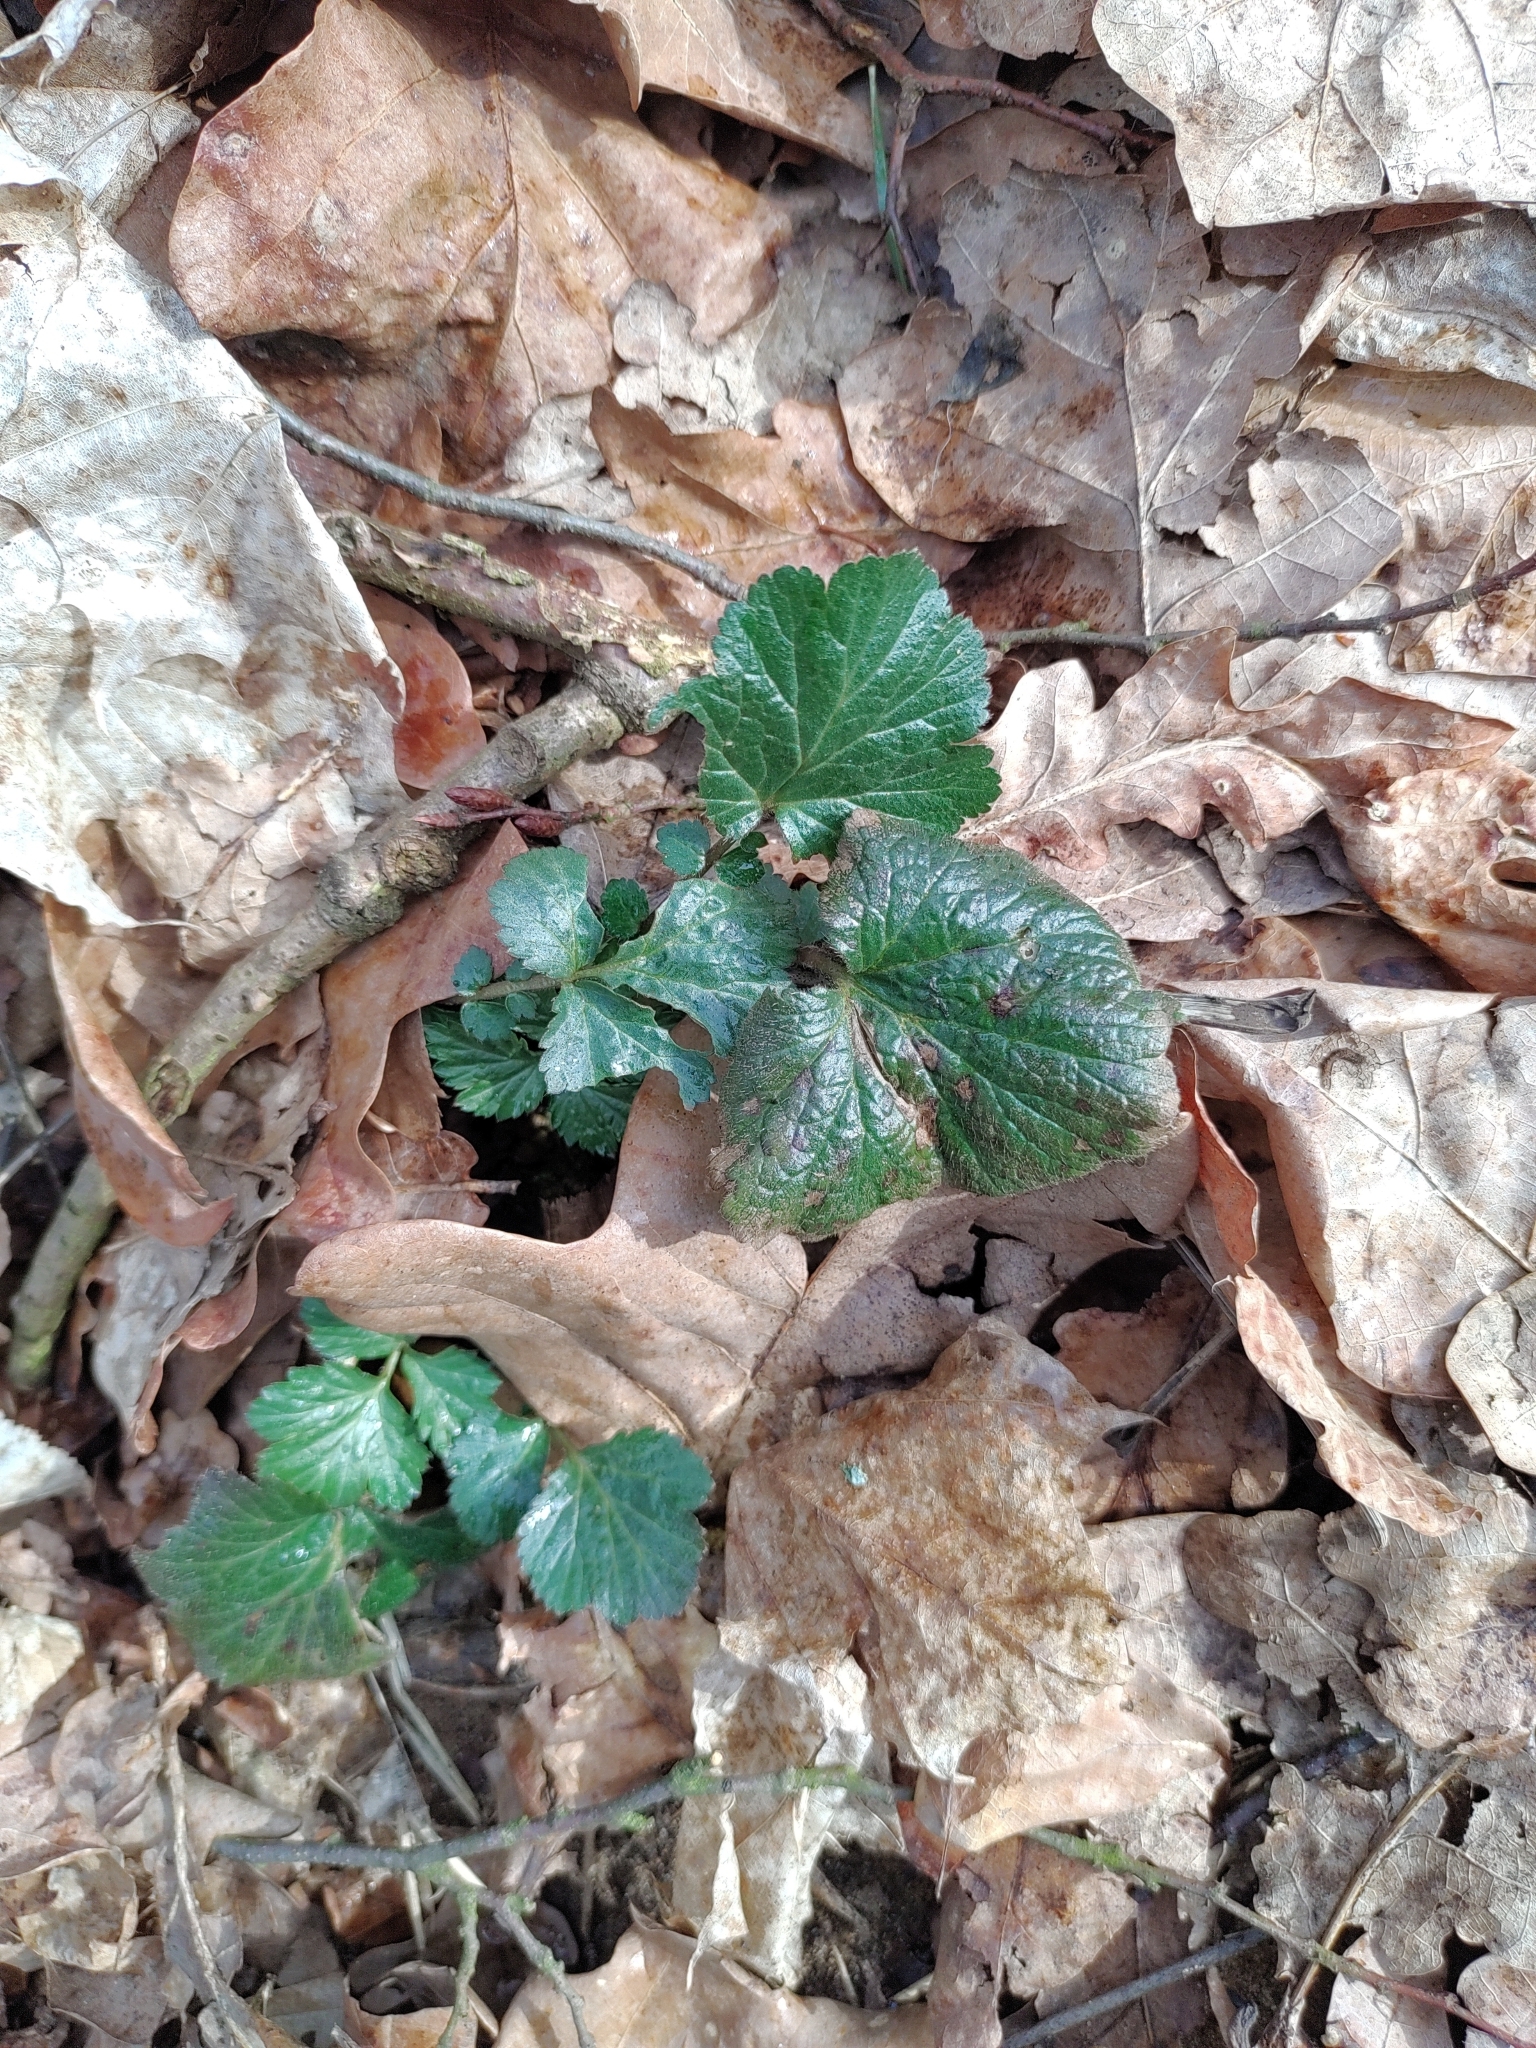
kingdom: Plantae
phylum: Tracheophyta
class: Magnoliopsida
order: Rosales
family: Rosaceae
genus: Geum
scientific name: Geum urbanum
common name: Wood avens
